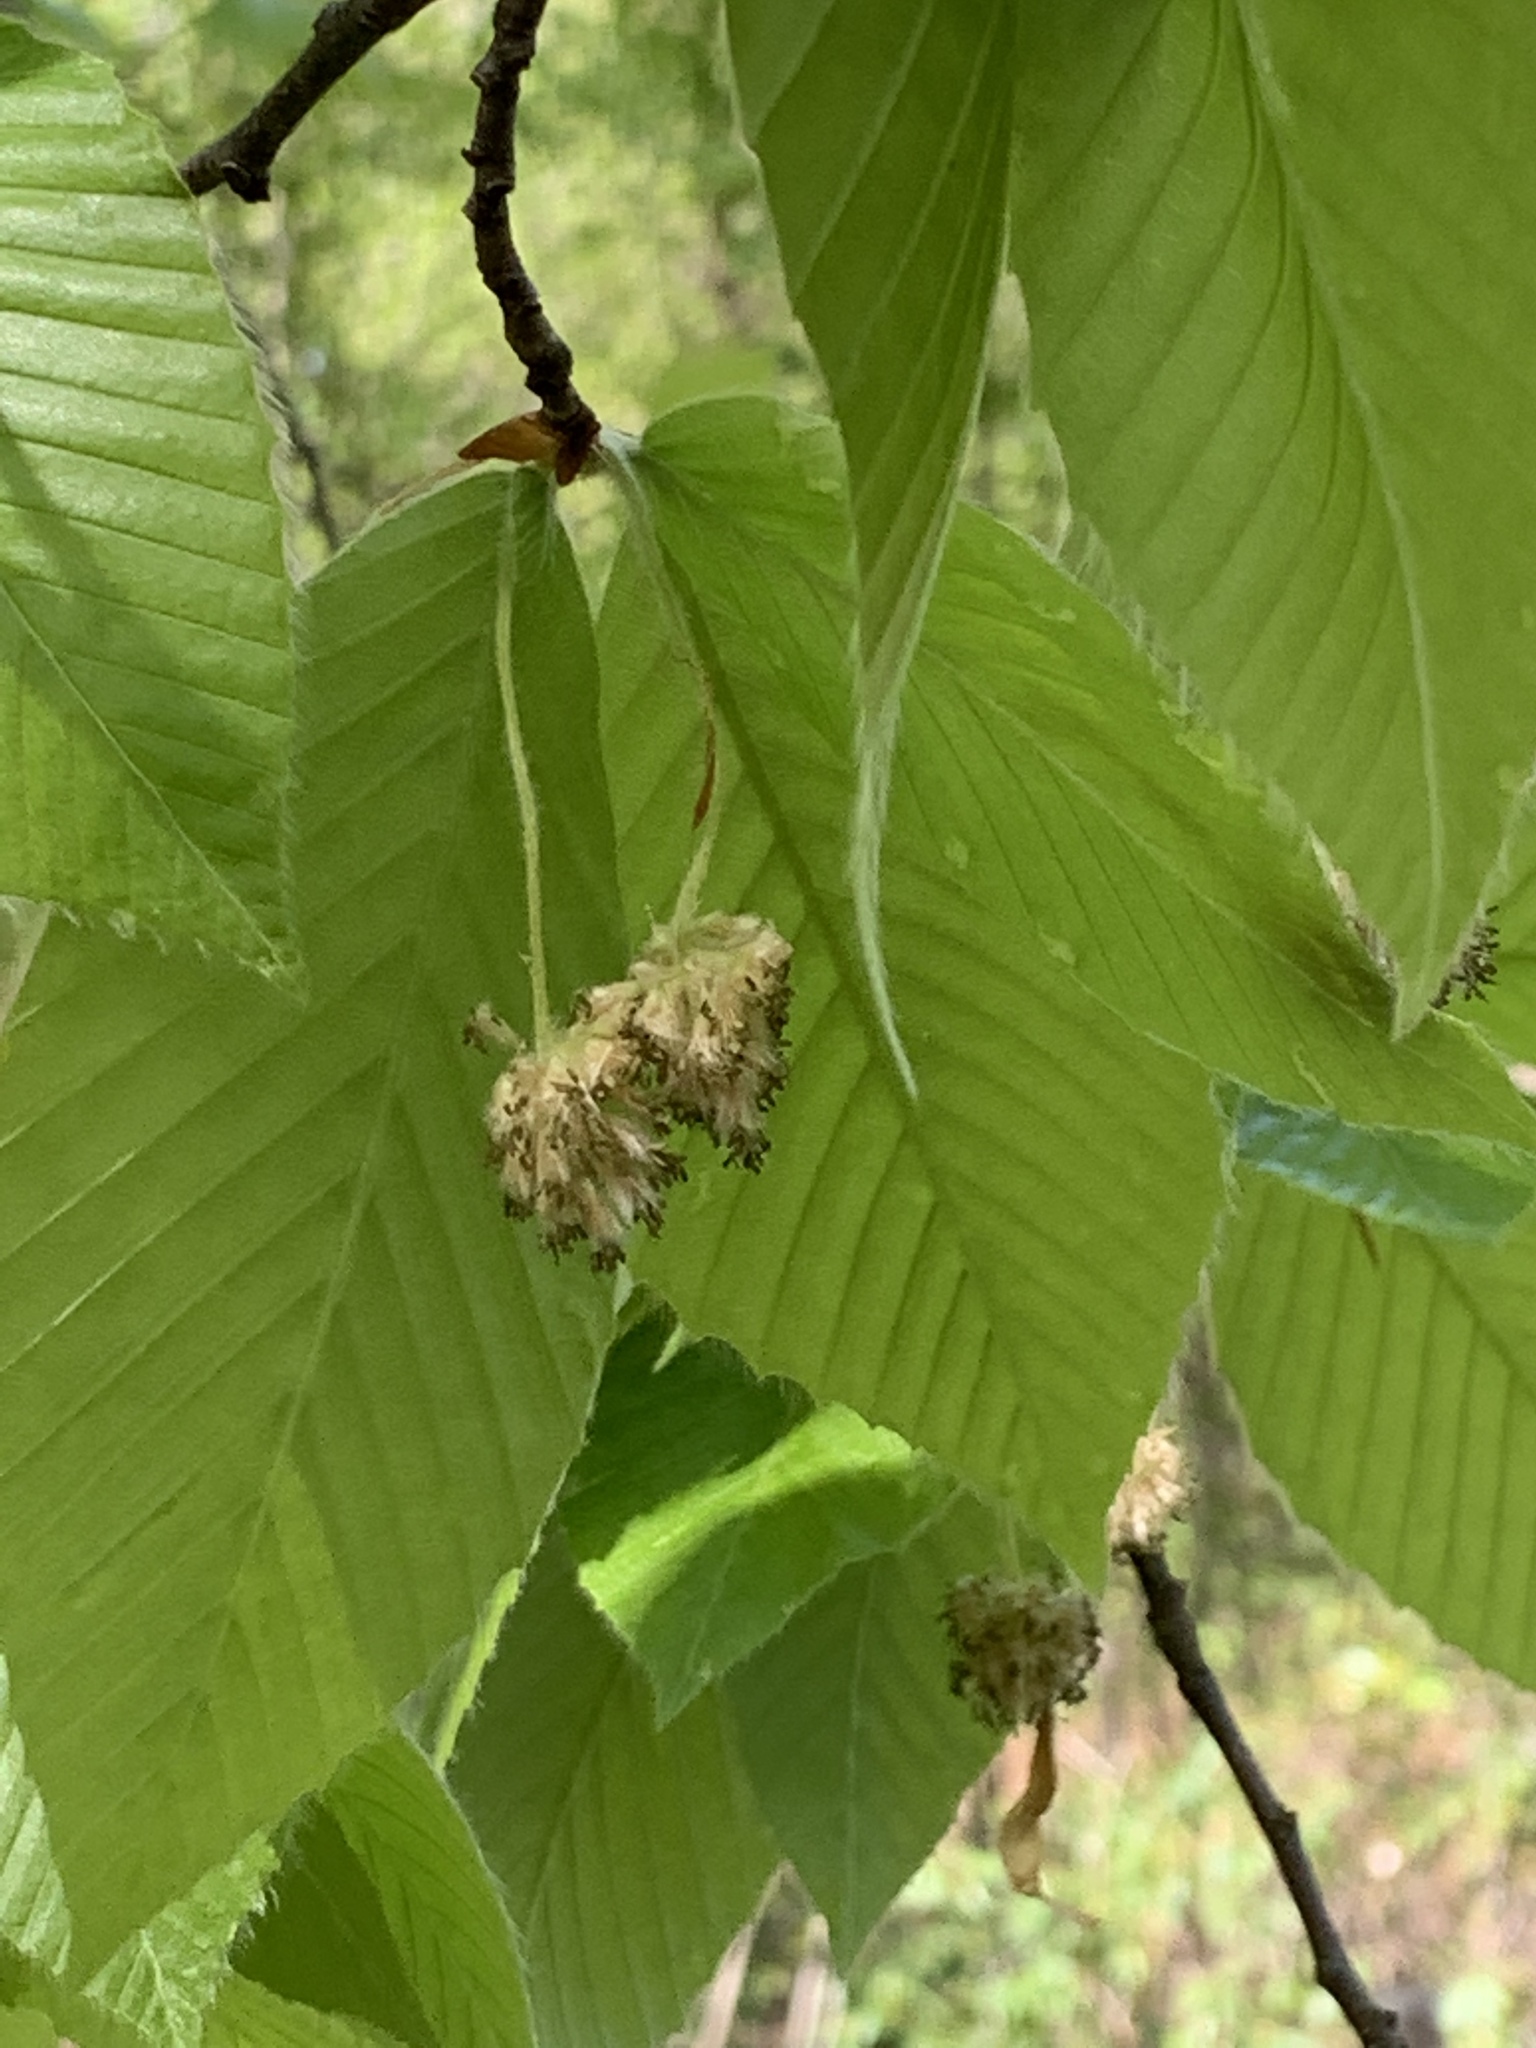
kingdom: Plantae
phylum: Tracheophyta
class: Magnoliopsida
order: Fagales
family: Fagaceae
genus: Fagus
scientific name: Fagus grandifolia
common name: American beech
